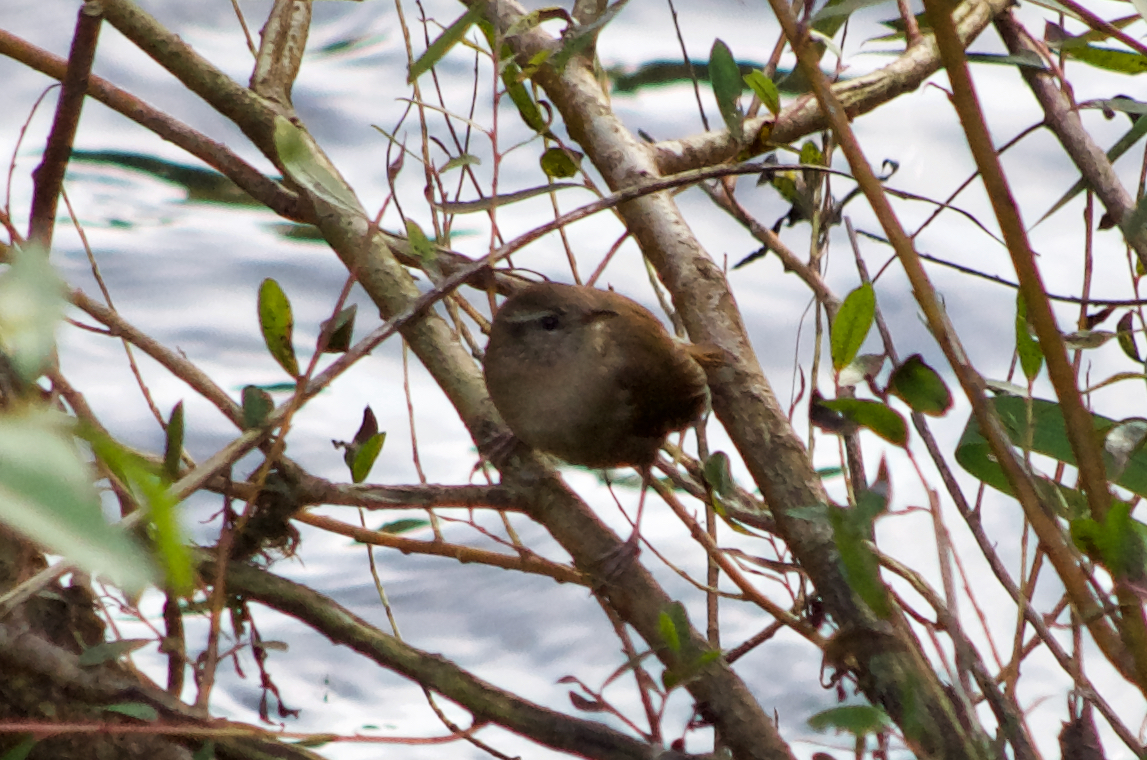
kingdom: Animalia
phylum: Chordata
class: Aves
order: Passeriformes
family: Troglodytidae
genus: Troglodytes
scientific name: Troglodytes troglodytes
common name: Eurasian wren
